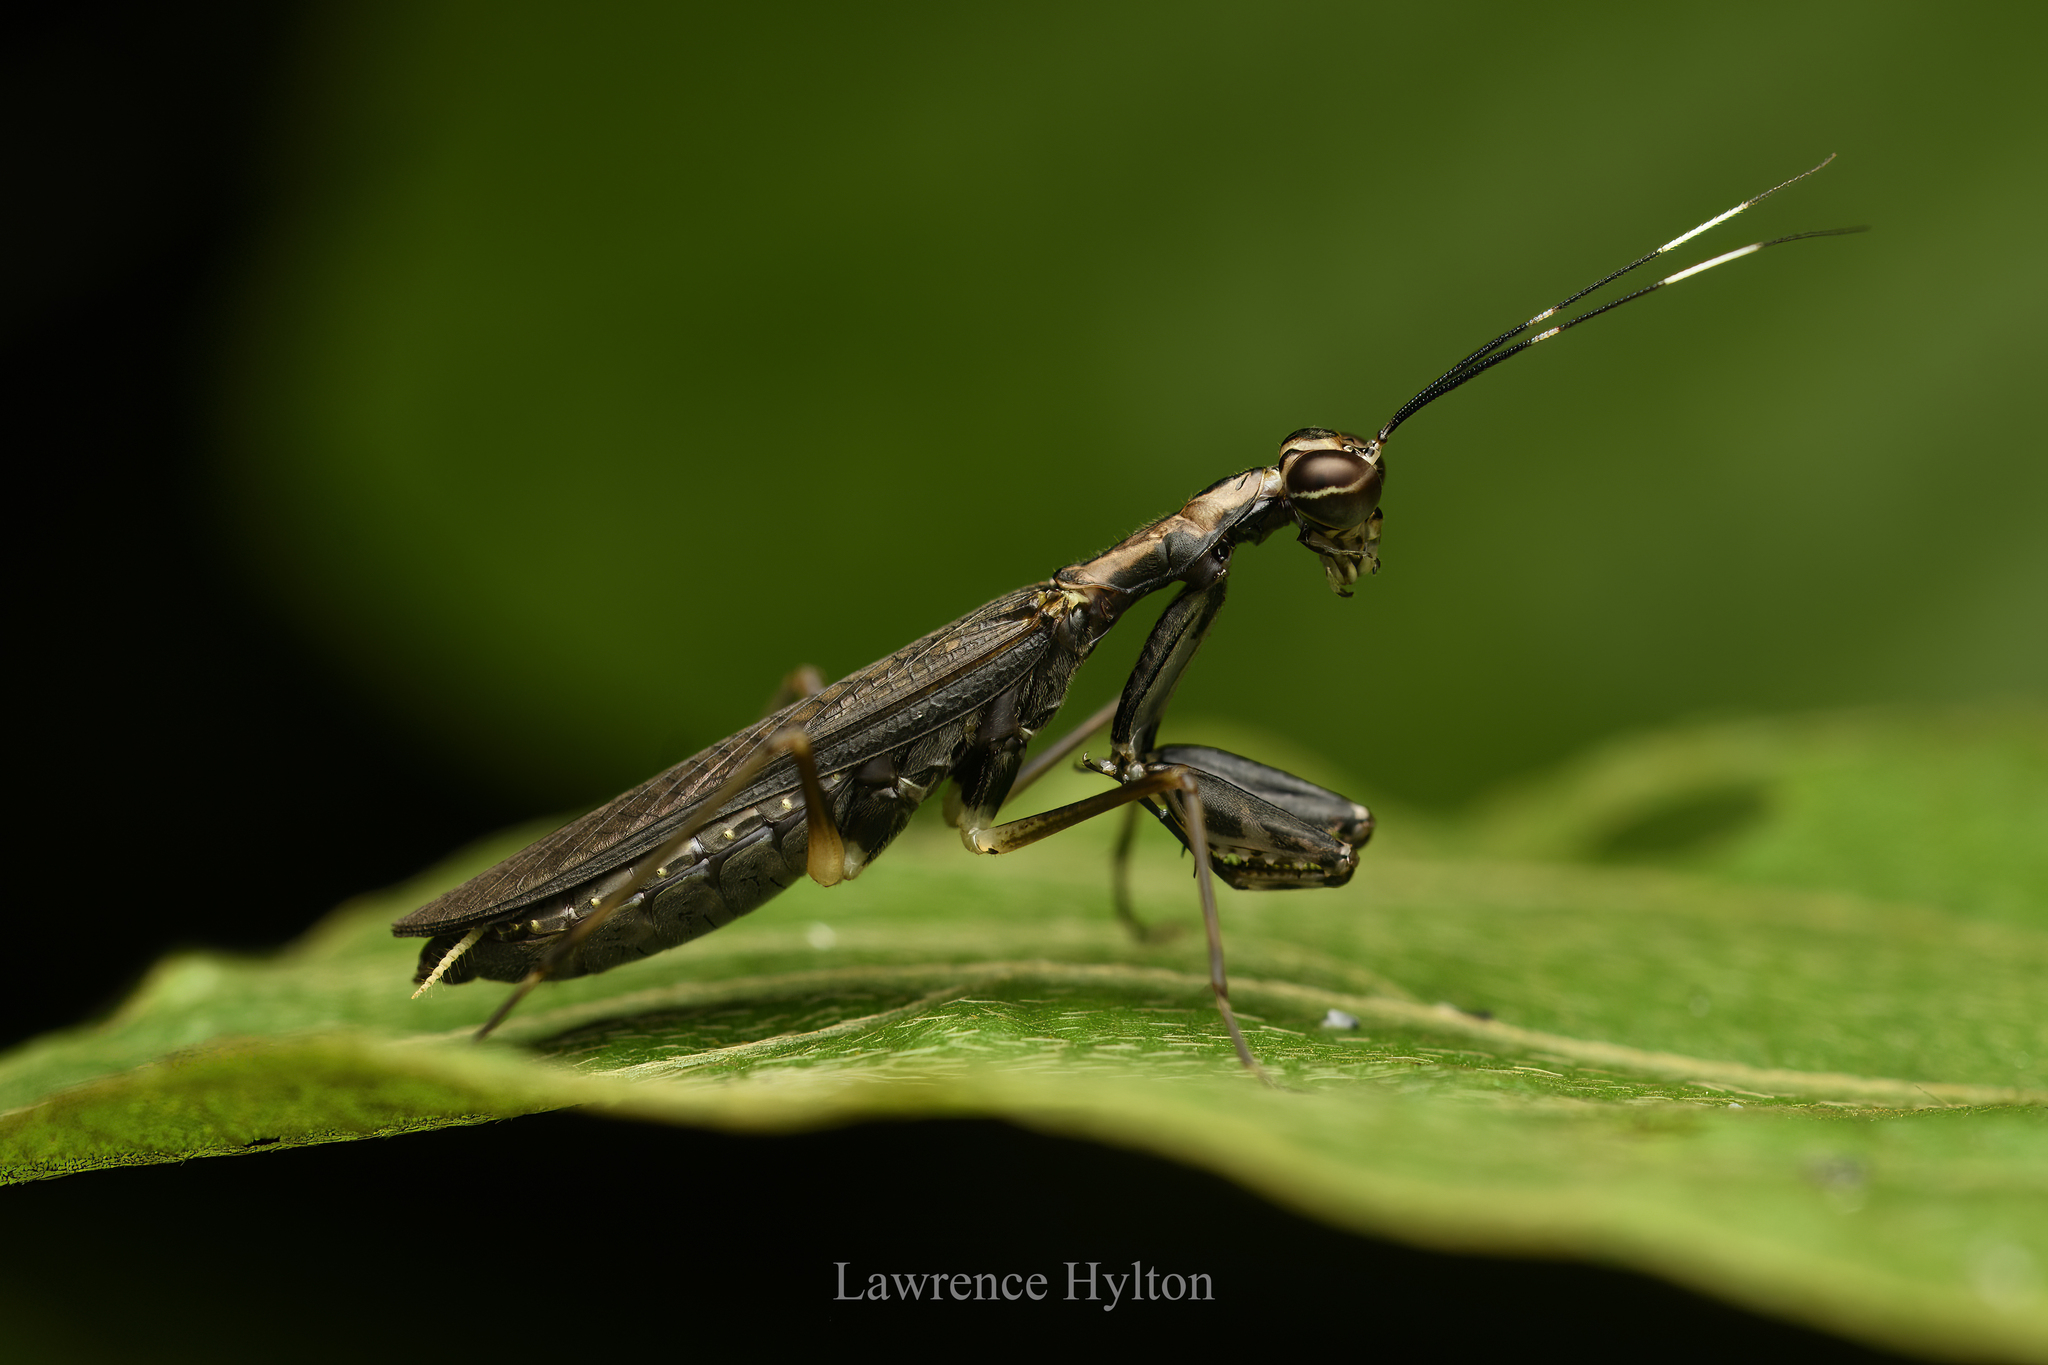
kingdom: Animalia
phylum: Arthropoda
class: Insecta
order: Mantodea
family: Gonypetidae
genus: Spilomantis
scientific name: Spilomantis occipitalis
